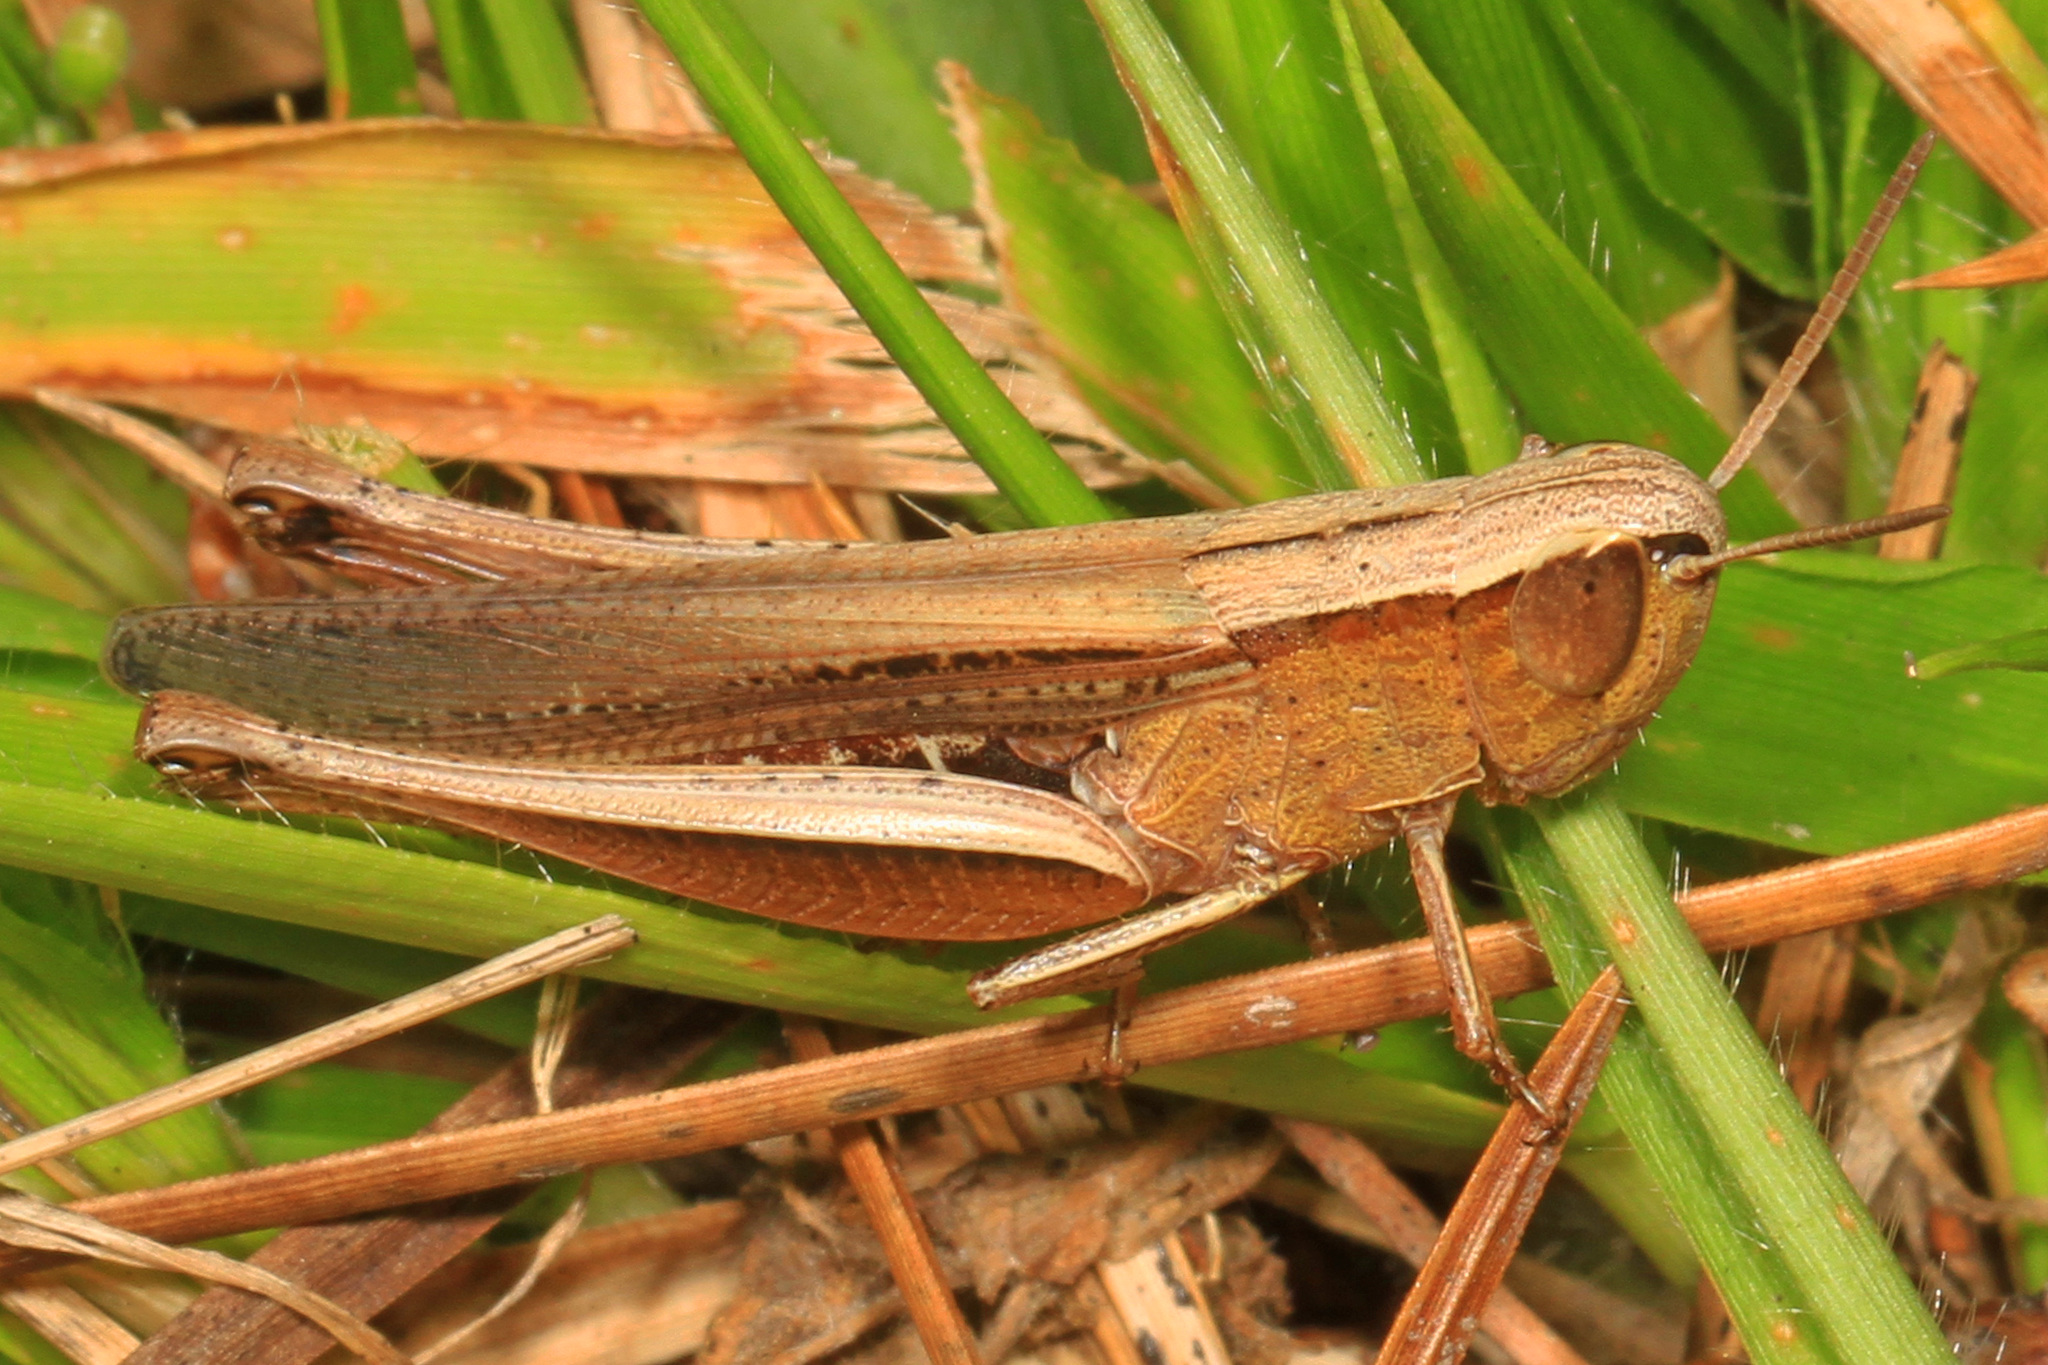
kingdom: Animalia
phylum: Arthropoda
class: Insecta
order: Orthoptera
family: Acrididae
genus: Amblytropidia
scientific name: Amblytropidia mysteca
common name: Brown winter grasshopper
